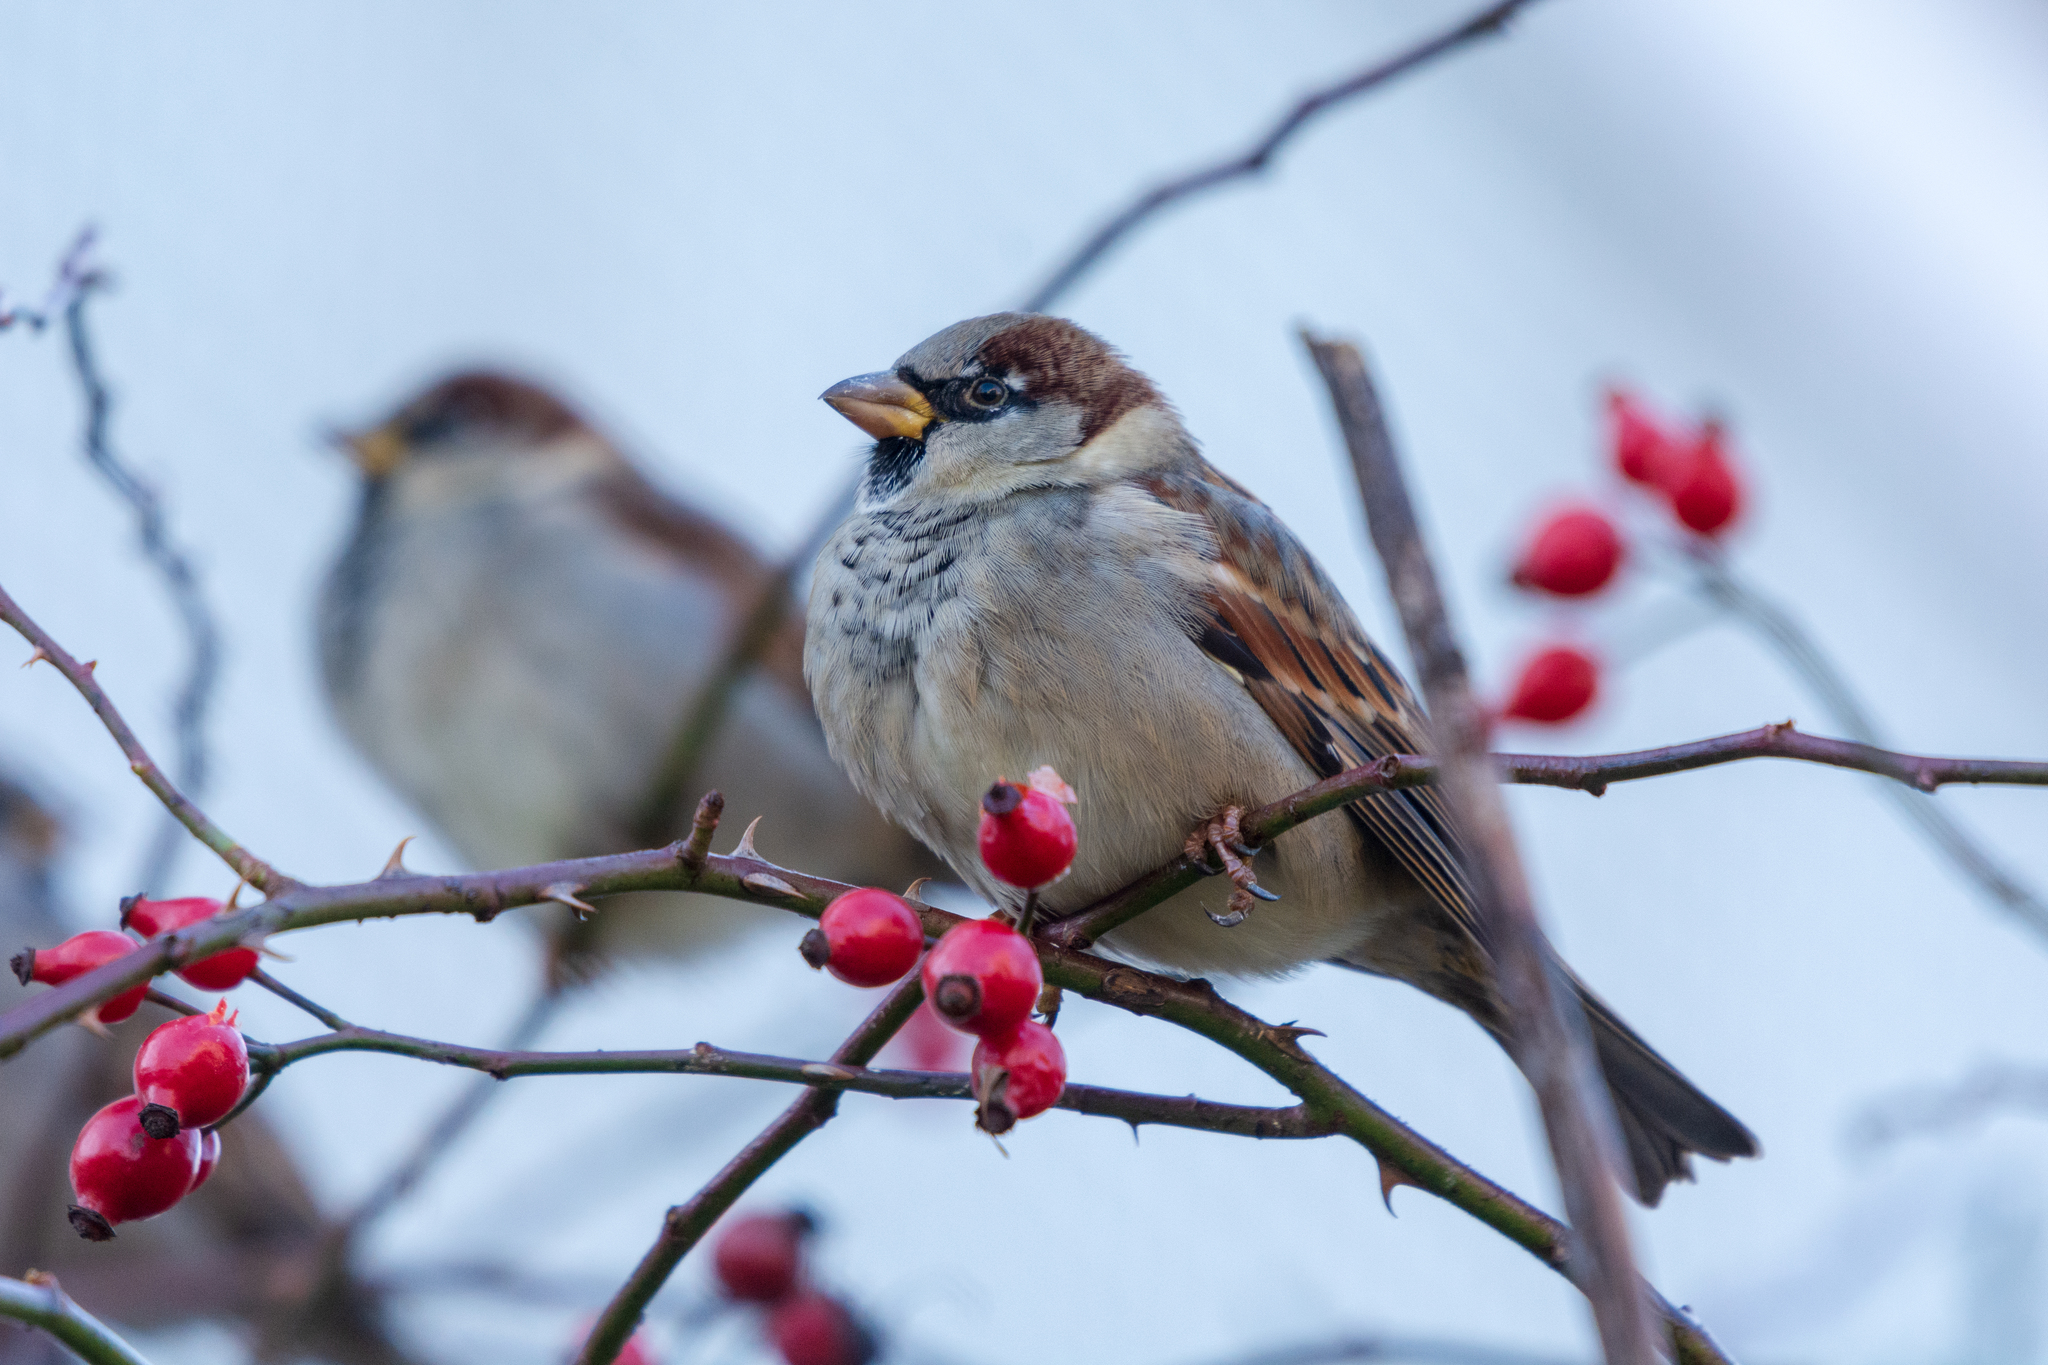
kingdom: Animalia
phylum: Chordata
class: Aves
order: Passeriformes
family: Passeridae
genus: Passer
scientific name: Passer domesticus
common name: House sparrow
